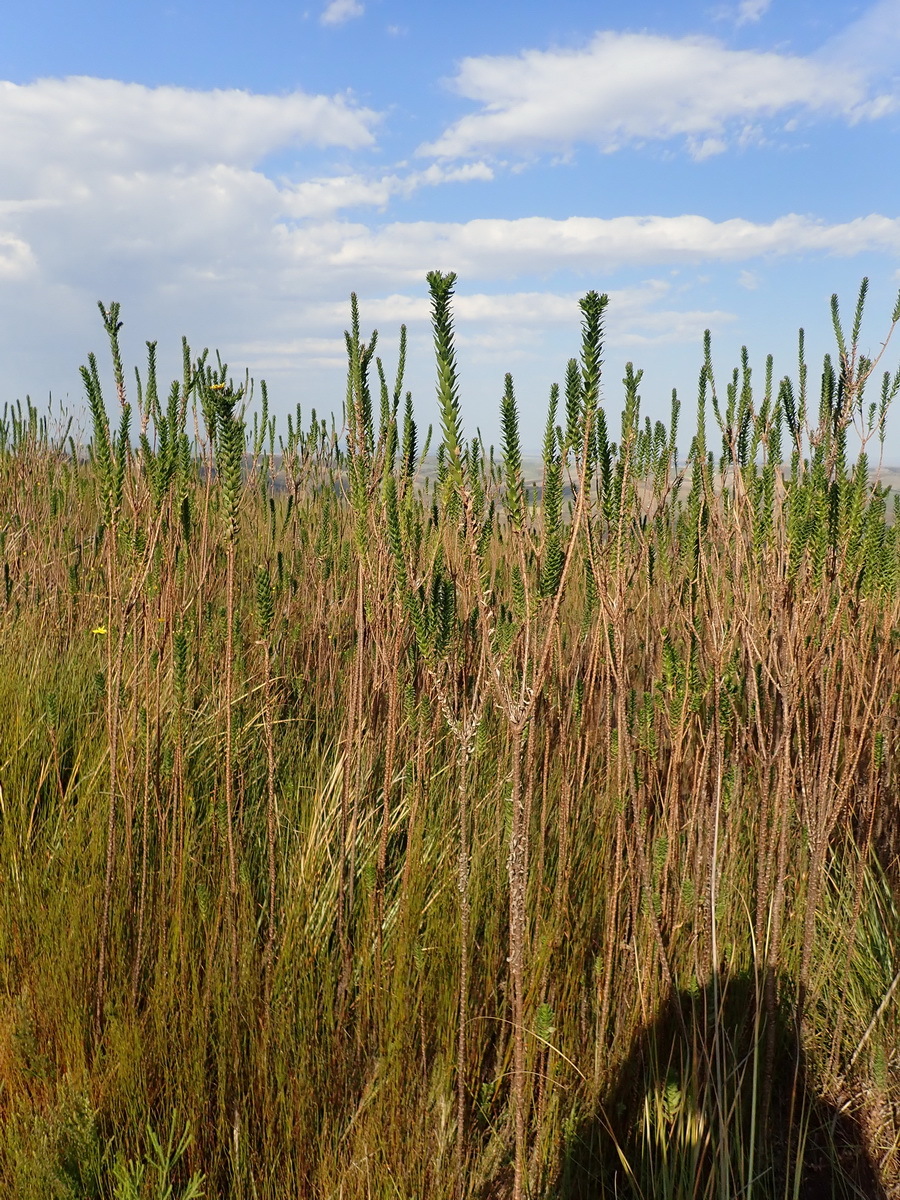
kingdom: Plantae
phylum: Tracheophyta
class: Magnoliopsida
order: Asterales
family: Asteraceae
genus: Ursinia
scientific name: Ursinia serrata
